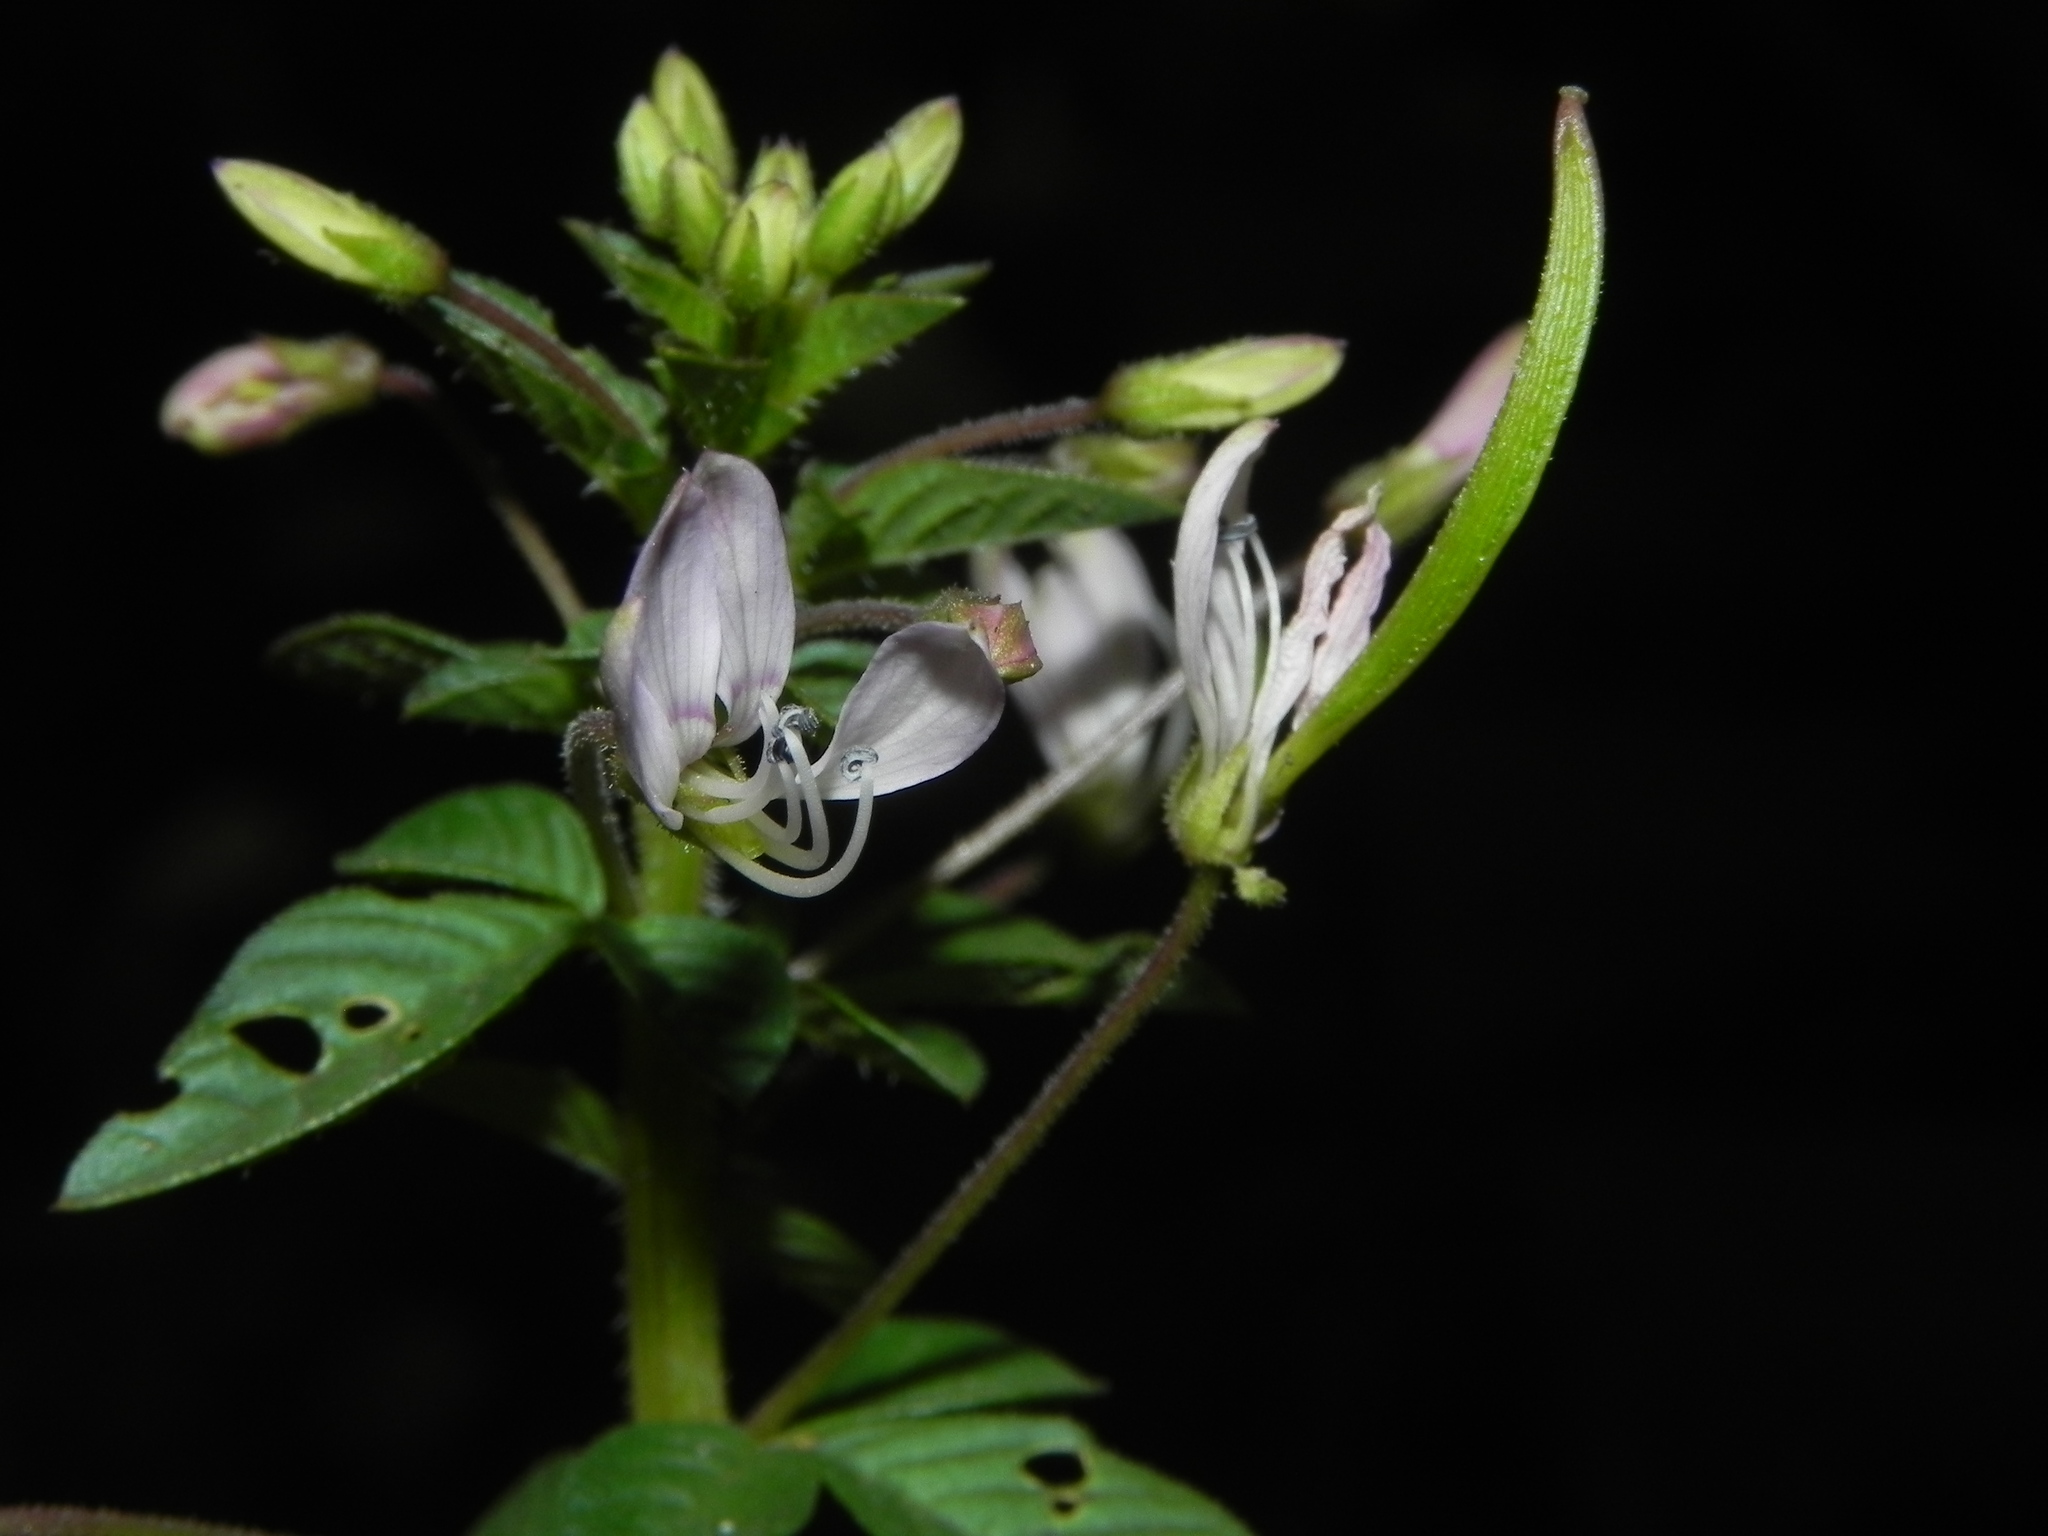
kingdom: Plantae
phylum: Tracheophyta
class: Magnoliopsida
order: Brassicales
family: Cleomaceae
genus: Sieruela
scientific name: Sieruela rutidosperma
